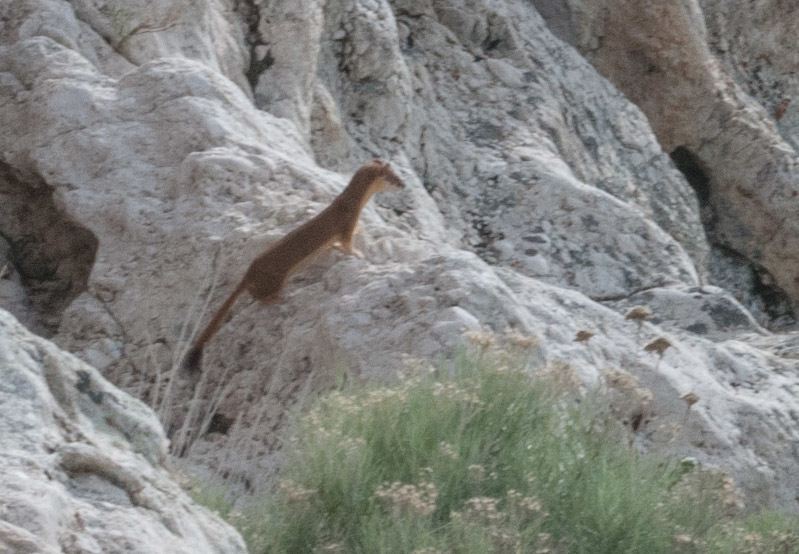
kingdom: Animalia
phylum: Chordata
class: Mammalia
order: Carnivora
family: Mustelidae
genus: Mustela
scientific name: Mustela
